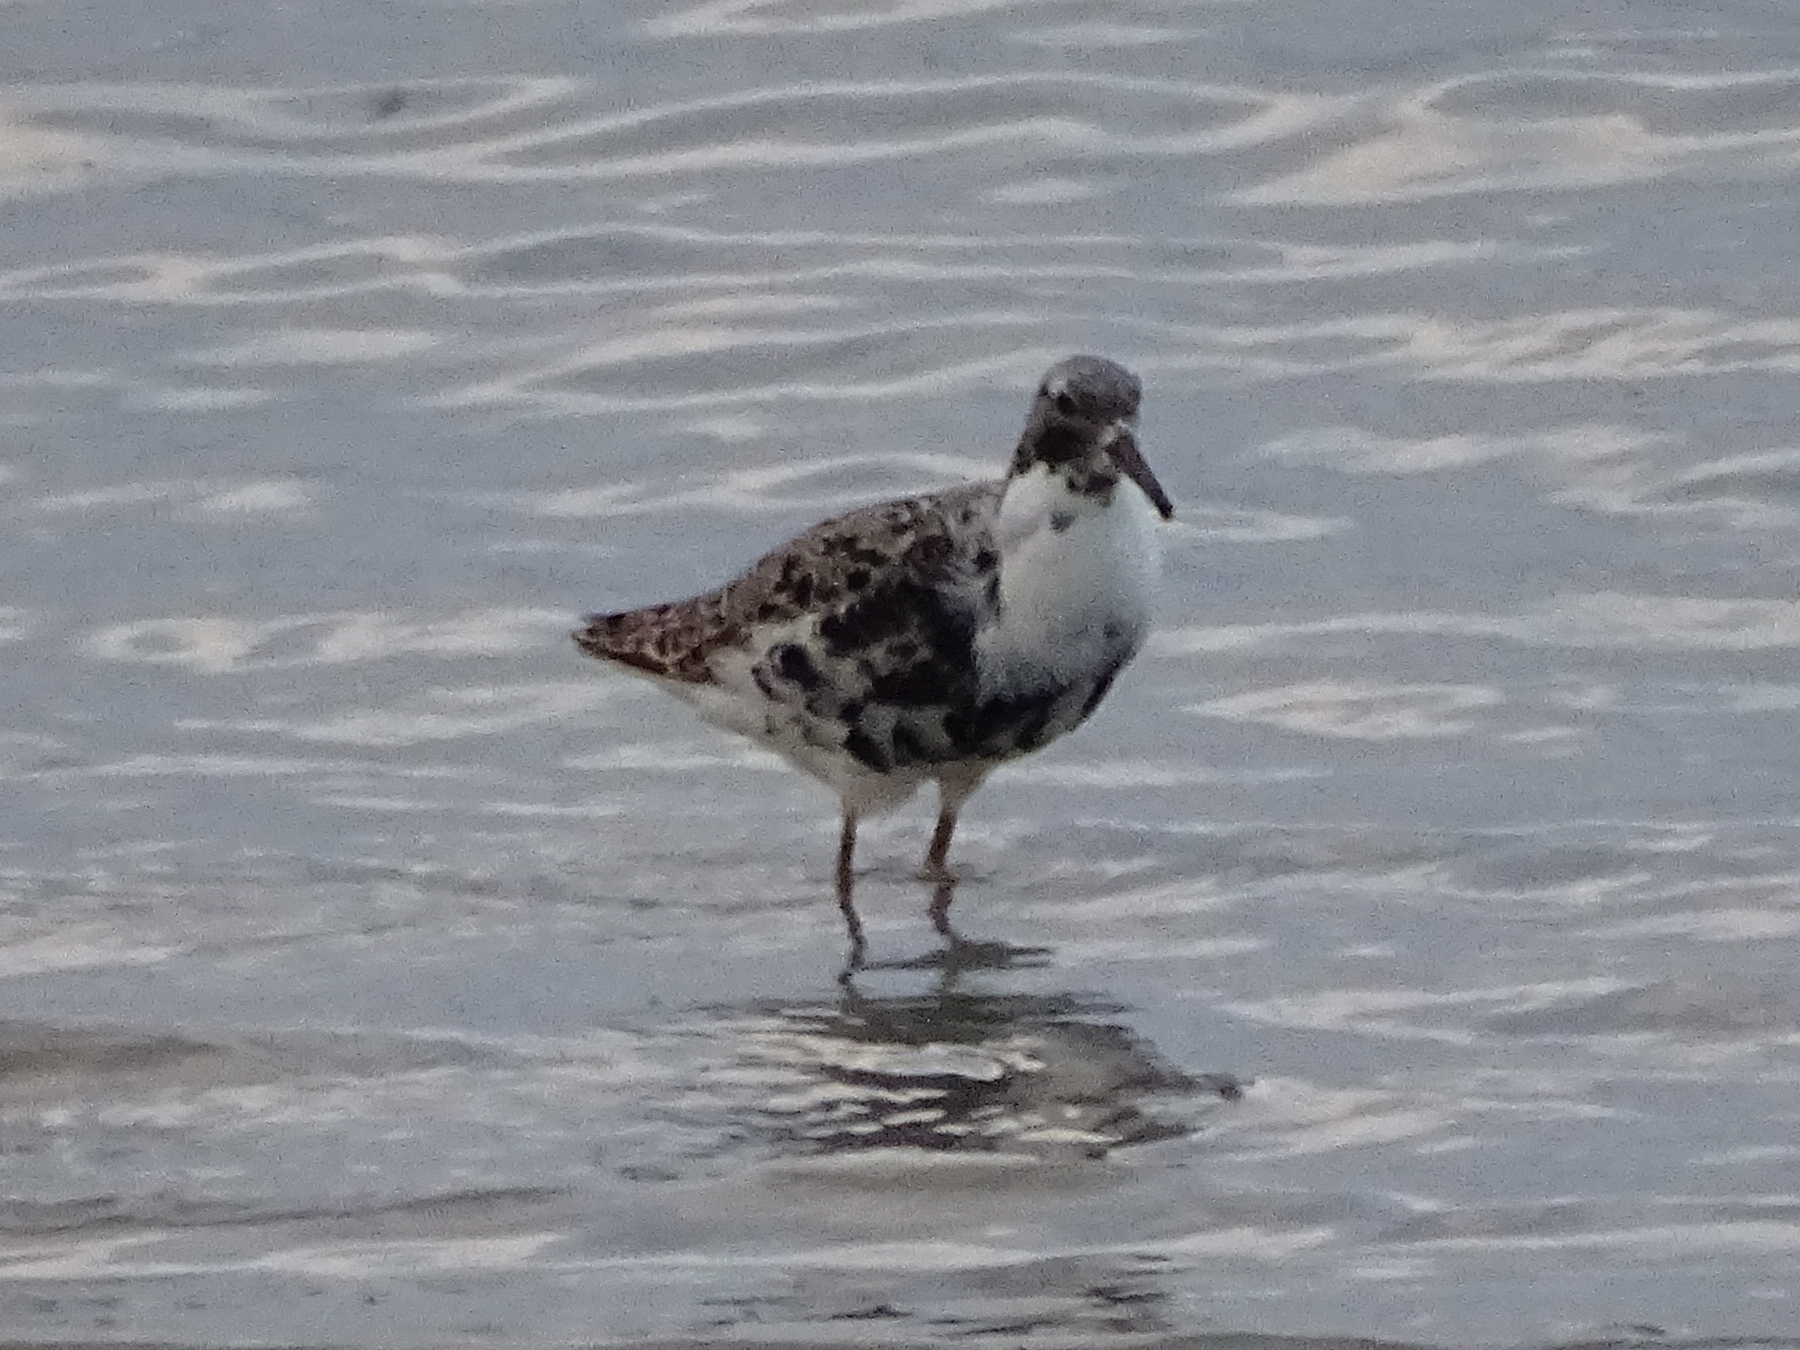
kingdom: Animalia
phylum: Chordata
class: Aves
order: Charadriiformes
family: Scolopacidae
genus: Calidris
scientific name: Calidris pugnax
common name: Ruff
